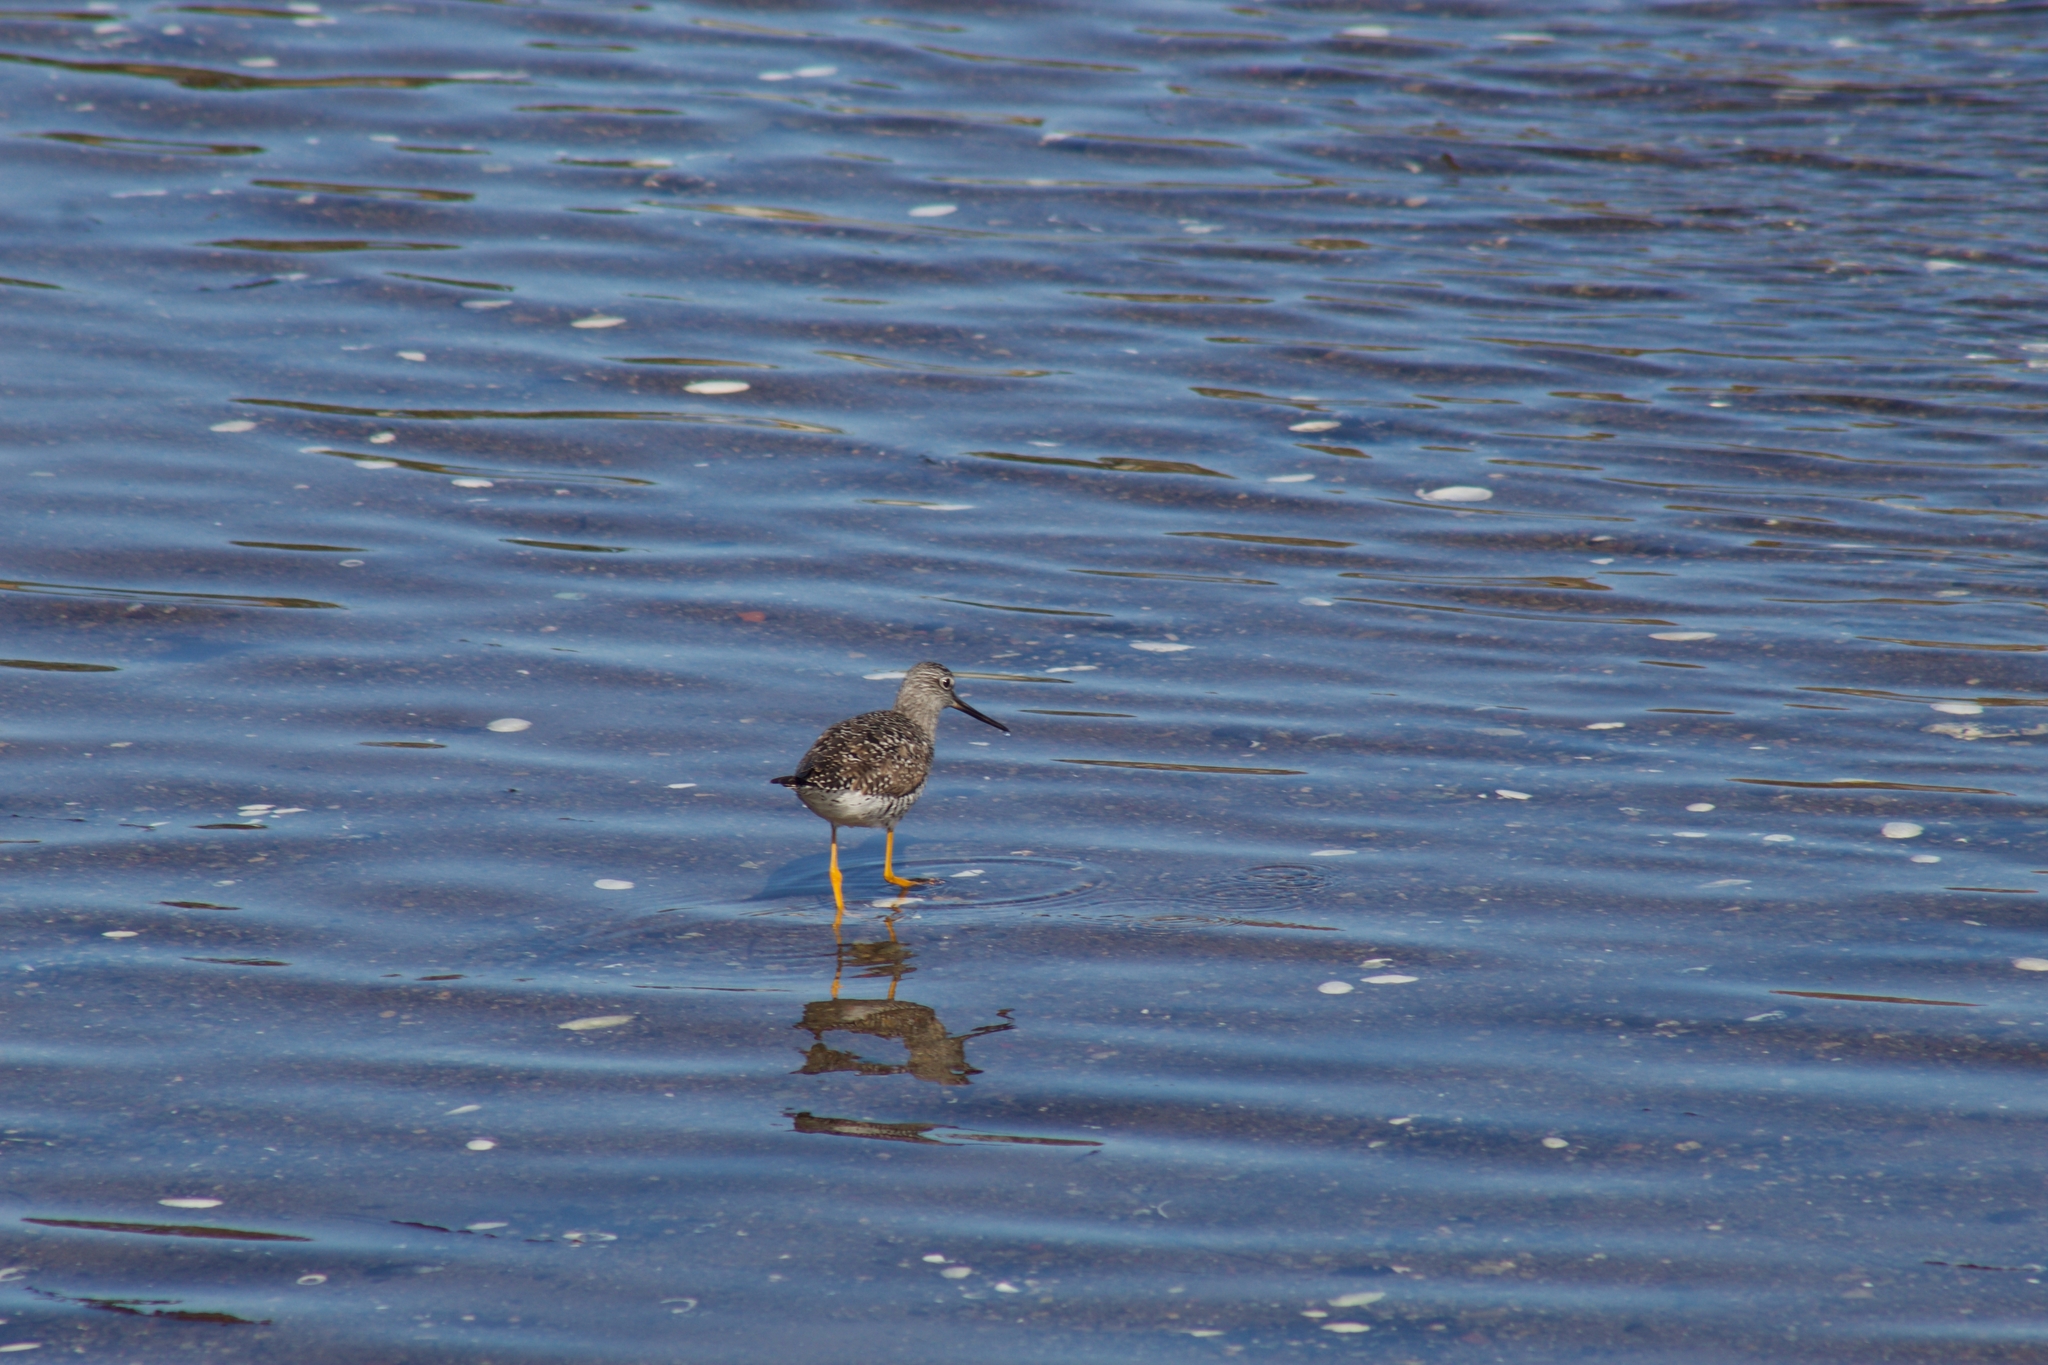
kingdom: Animalia
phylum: Chordata
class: Aves
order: Charadriiformes
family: Scolopacidae
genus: Tringa
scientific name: Tringa melanoleuca
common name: Greater yellowlegs
